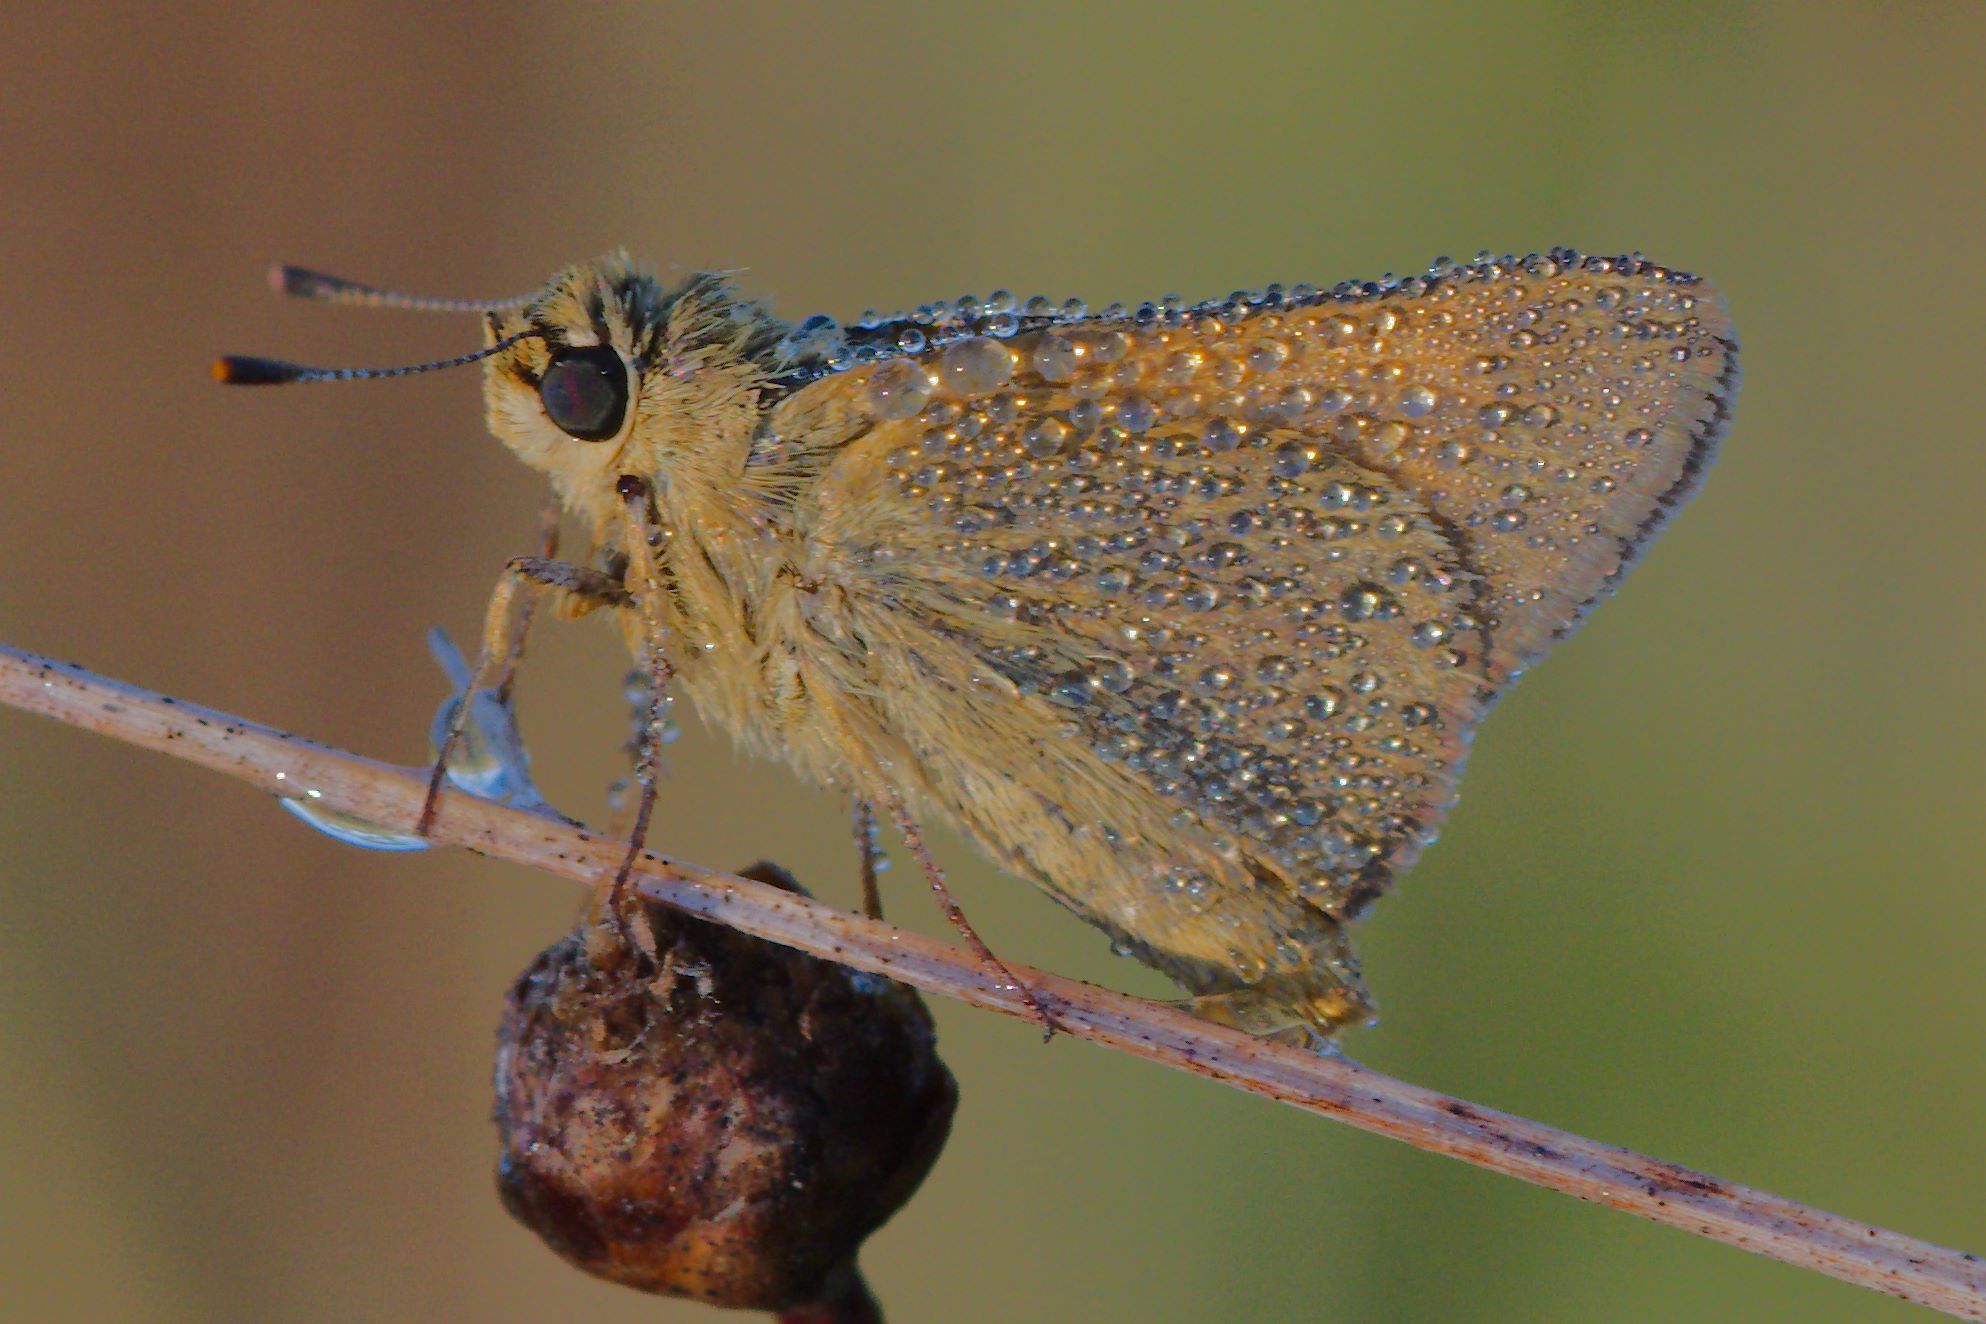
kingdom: Animalia
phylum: Arthropoda
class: Insecta
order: Lepidoptera
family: Hesperiidae
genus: Atrytone
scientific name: Atrytone arogos
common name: Arogos skipper
